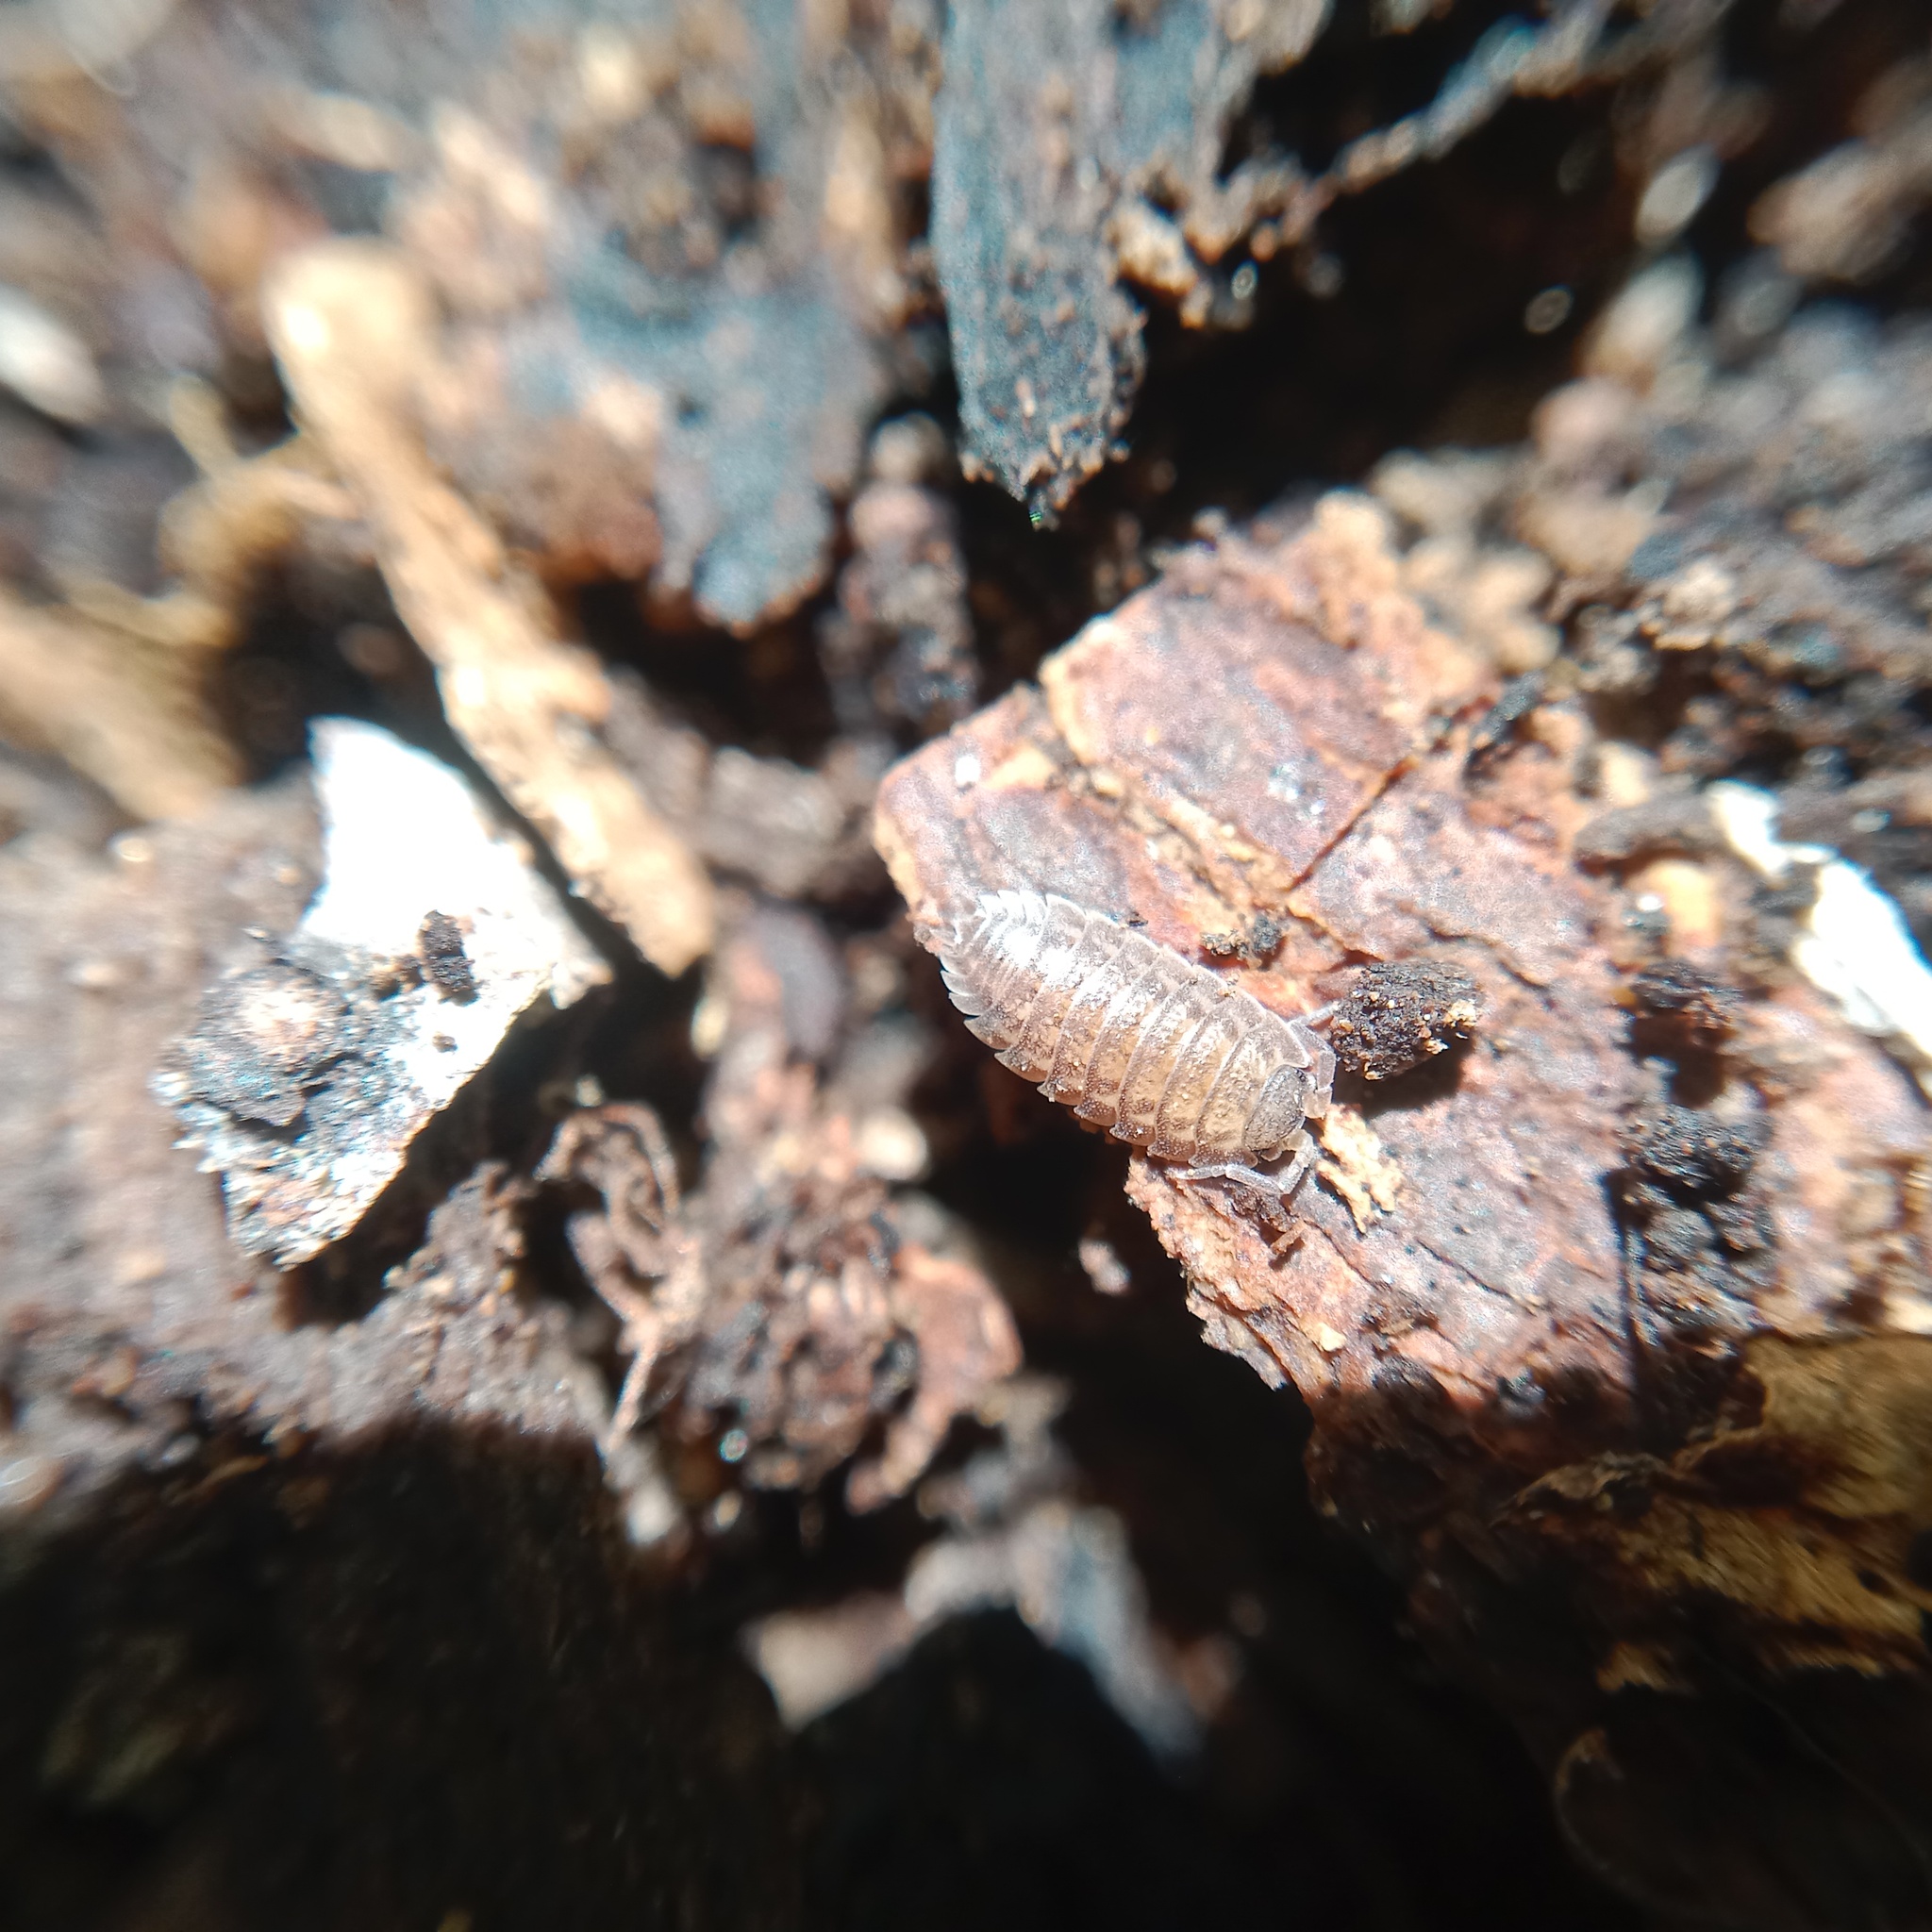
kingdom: Animalia
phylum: Arthropoda
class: Malacostraca
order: Isopoda
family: Trachelipodidae
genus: Trachelipus
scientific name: Trachelipus rathkii
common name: Isopod
